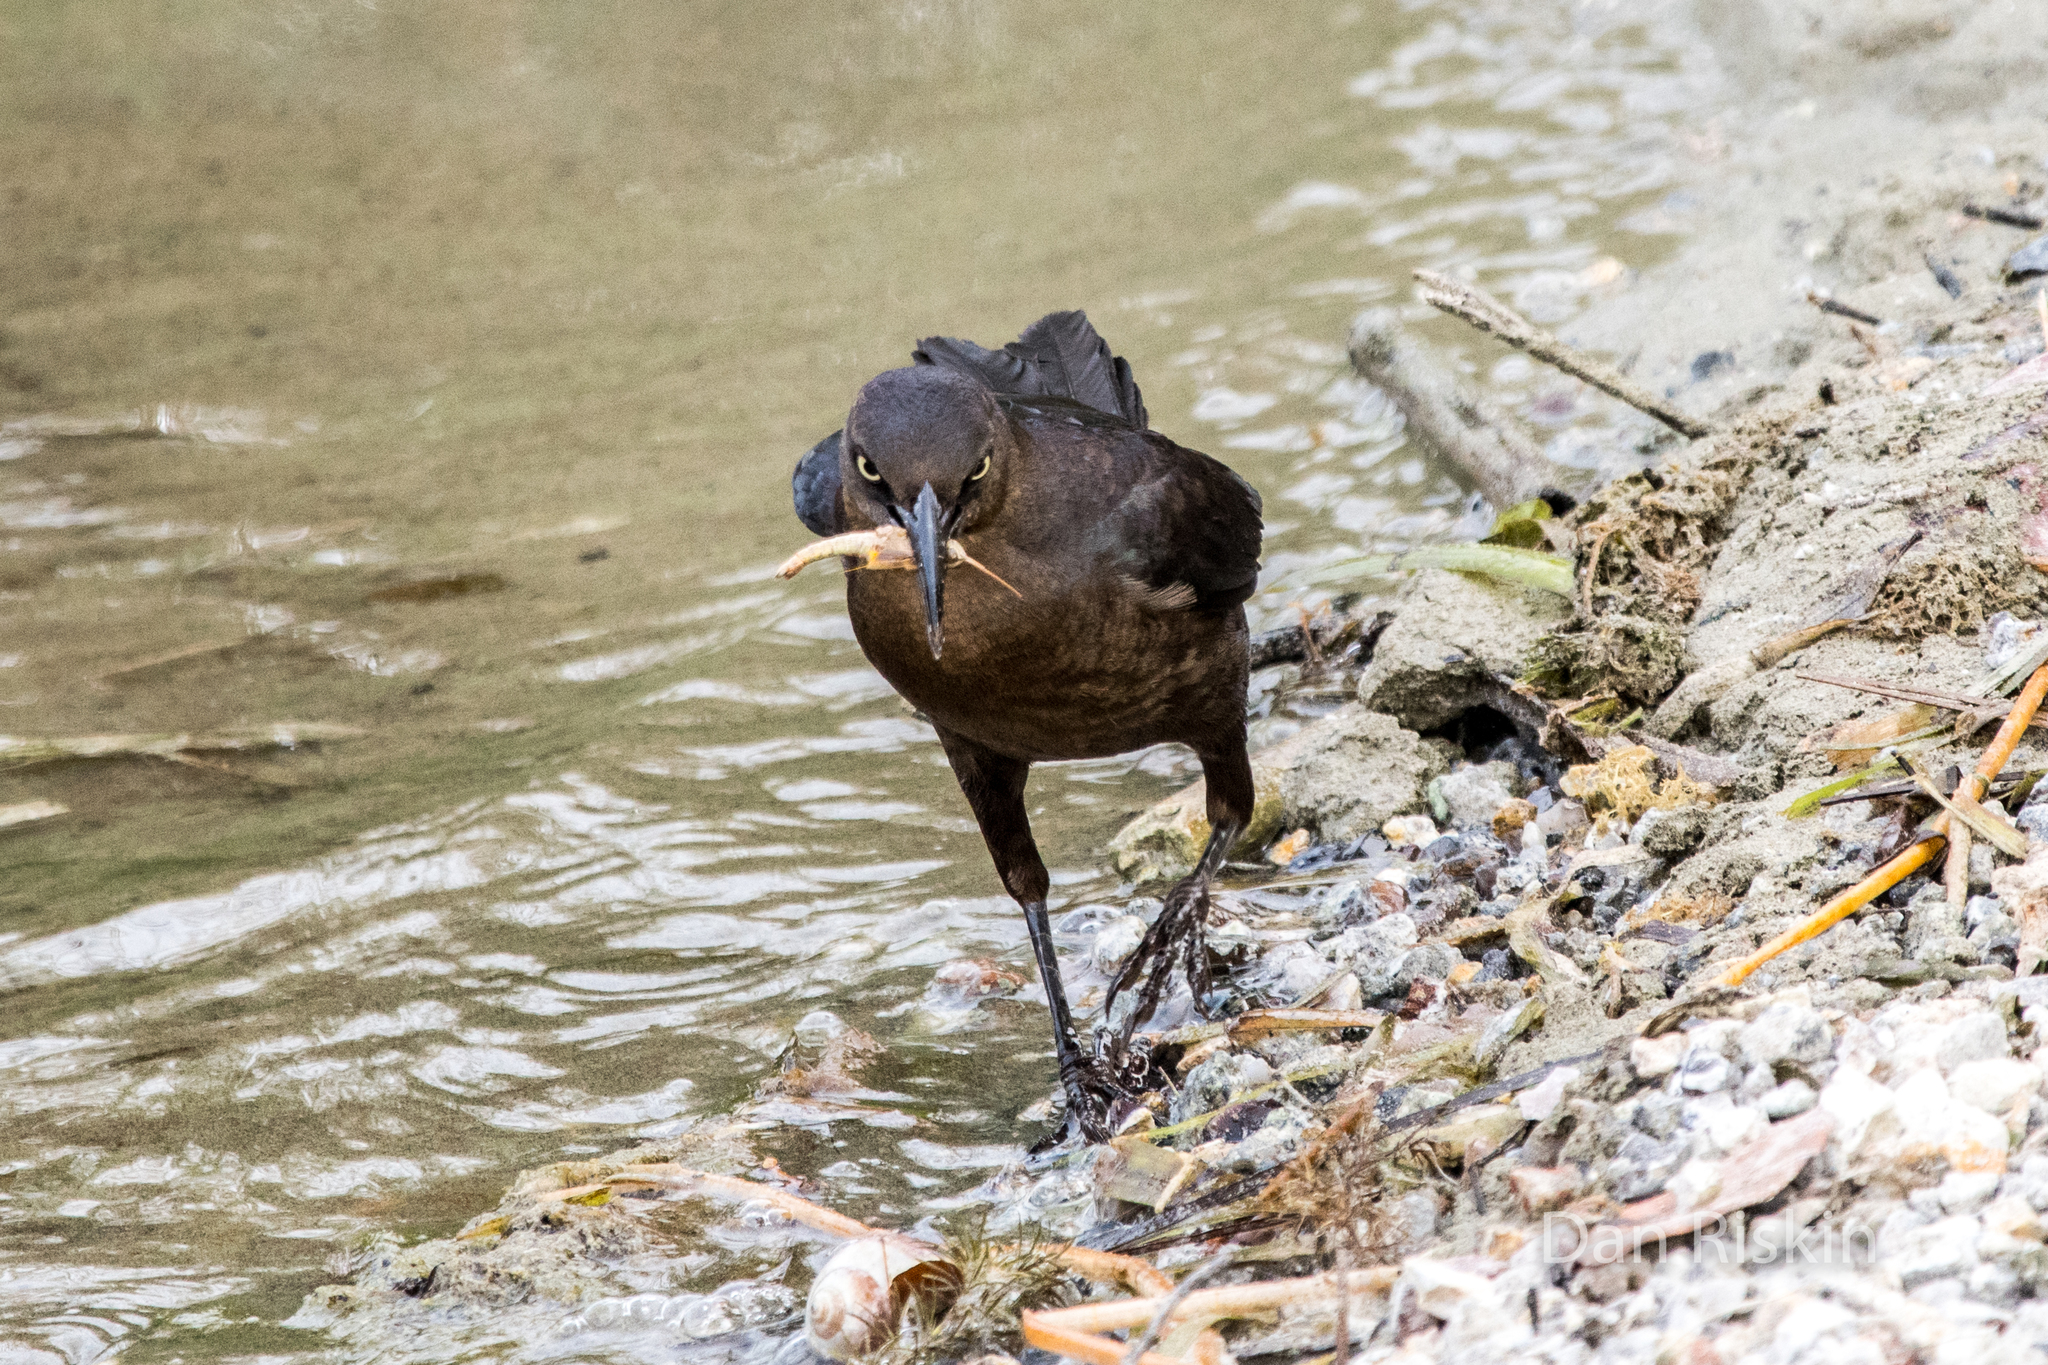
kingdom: Animalia
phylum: Chordata
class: Aves
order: Passeriformes
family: Icteridae
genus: Quiscalus
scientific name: Quiscalus mexicanus
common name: Great-tailed grackle
